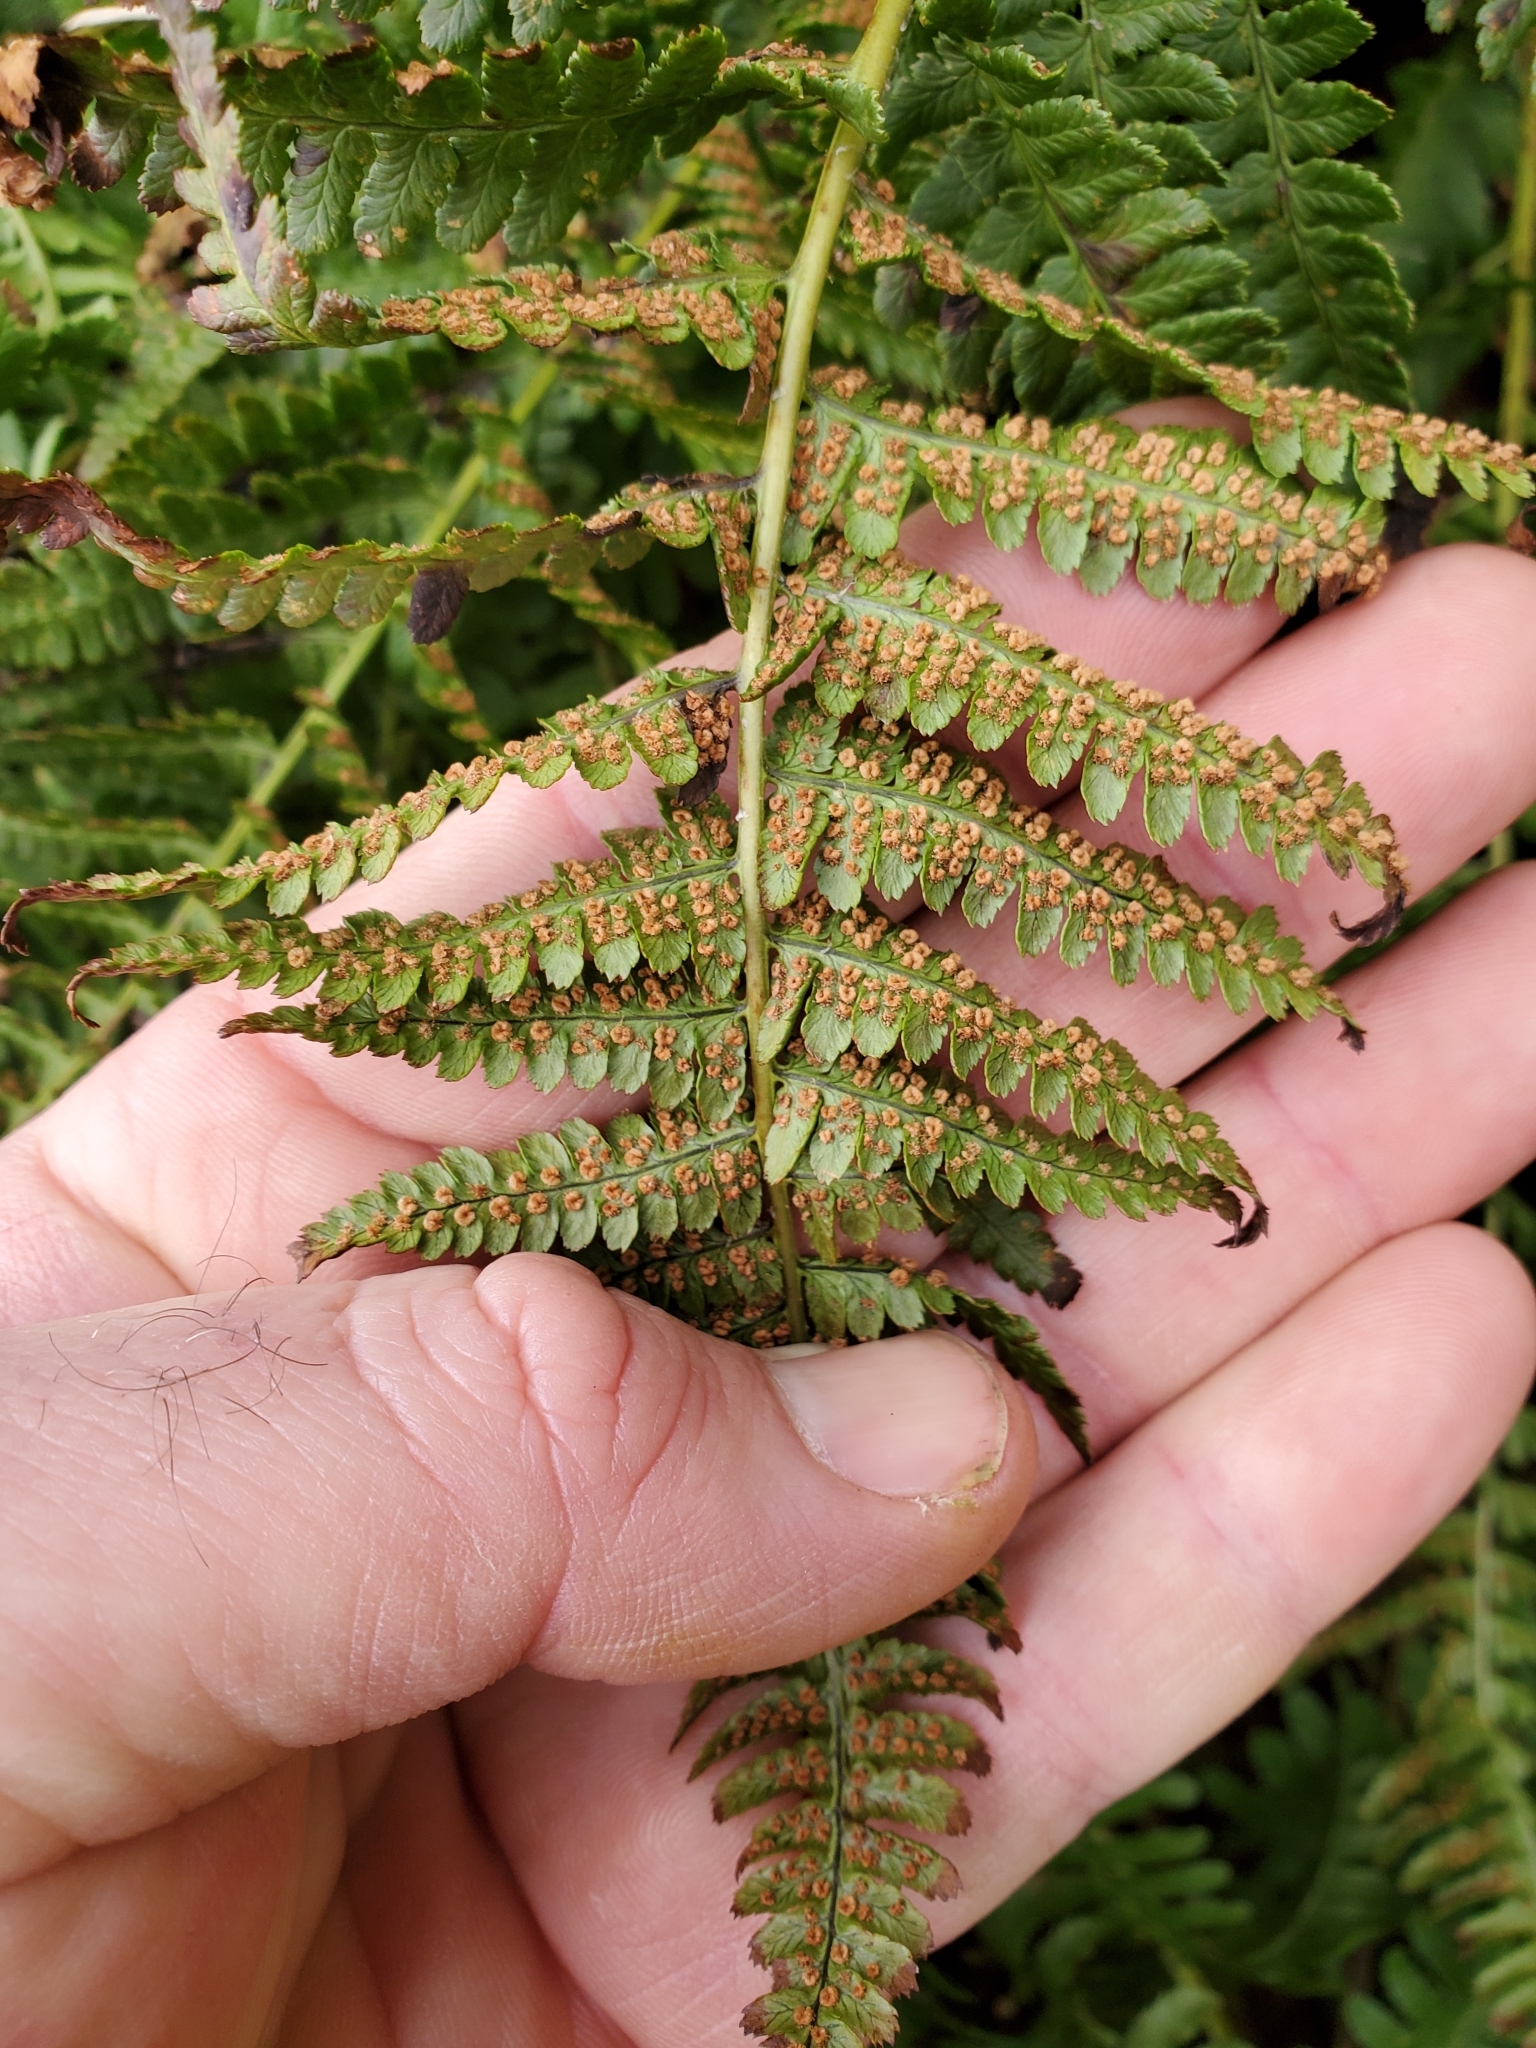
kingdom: Plantae
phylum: Tracheophyta
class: Polypodiopsida
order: Polypodiales
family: Dryopteridaceae
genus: Dryopteris
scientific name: Dryopteris arguta
